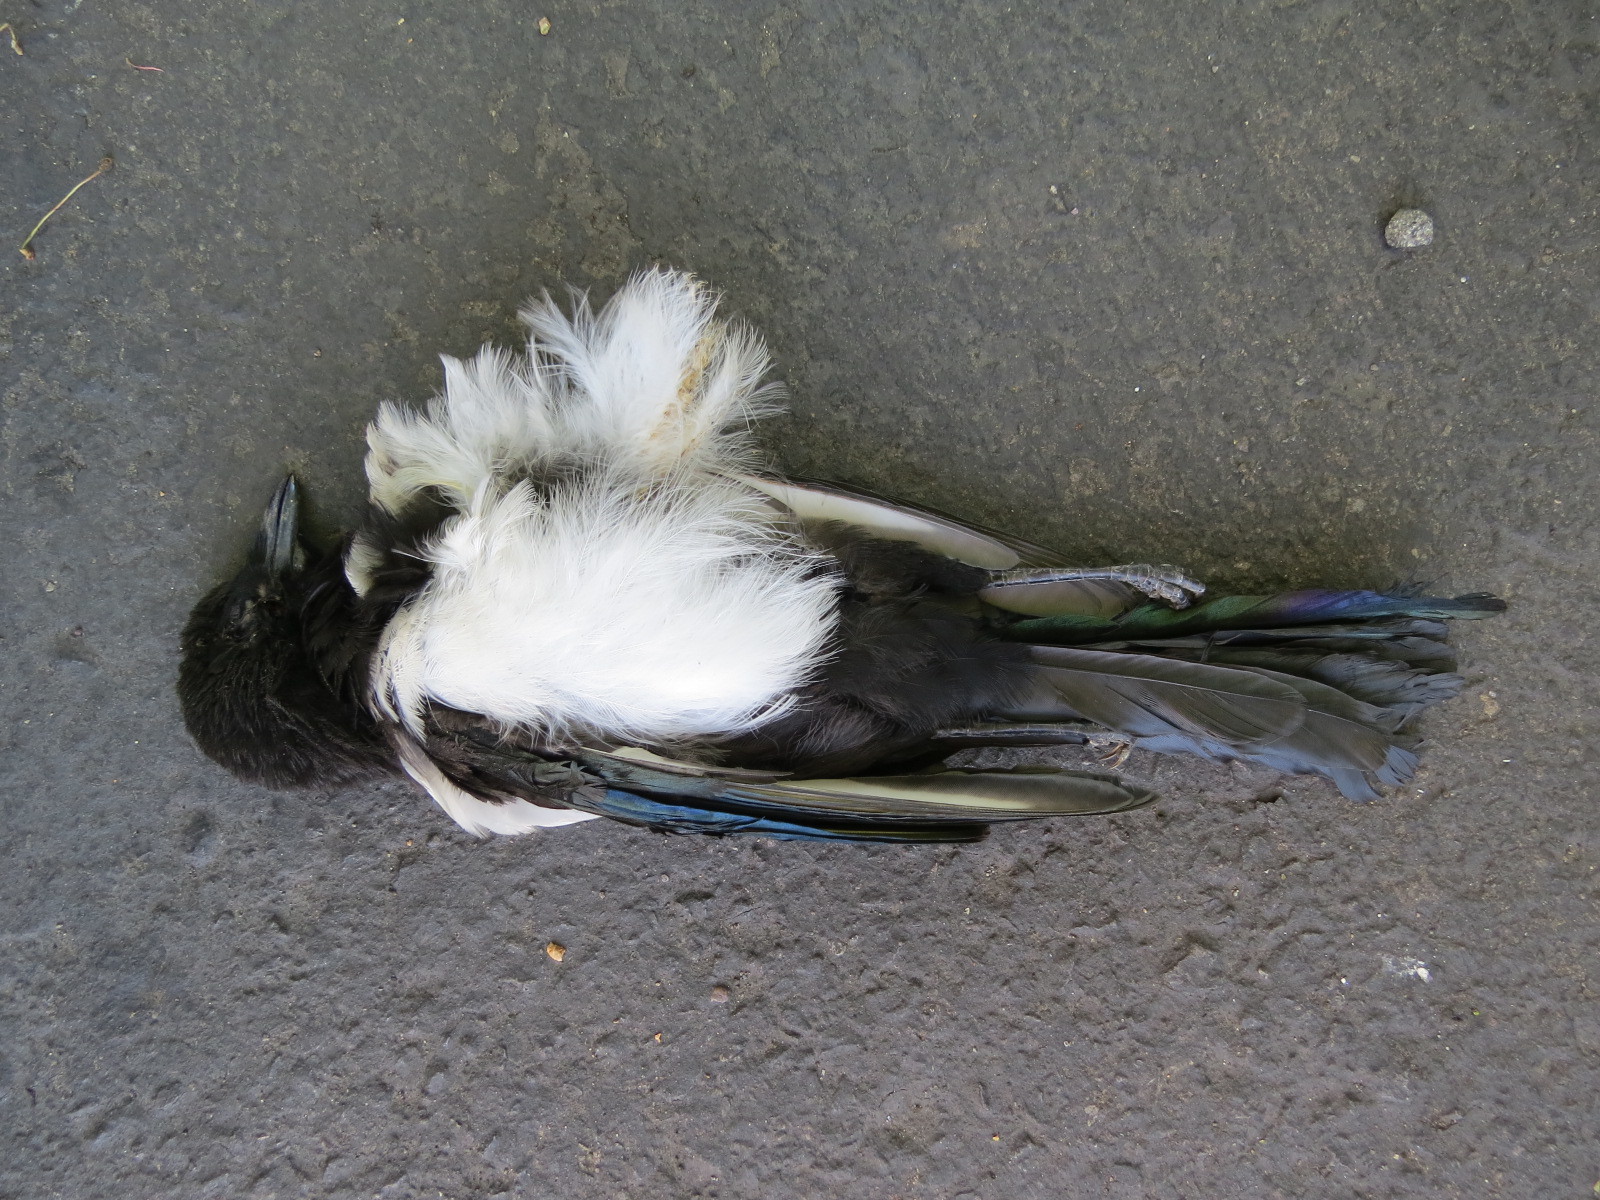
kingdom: Animalia
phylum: Chordata
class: Aves
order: Passeriformes
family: Corvidae
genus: Pica
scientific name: Pica hudsonia
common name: Black-billed magpie
